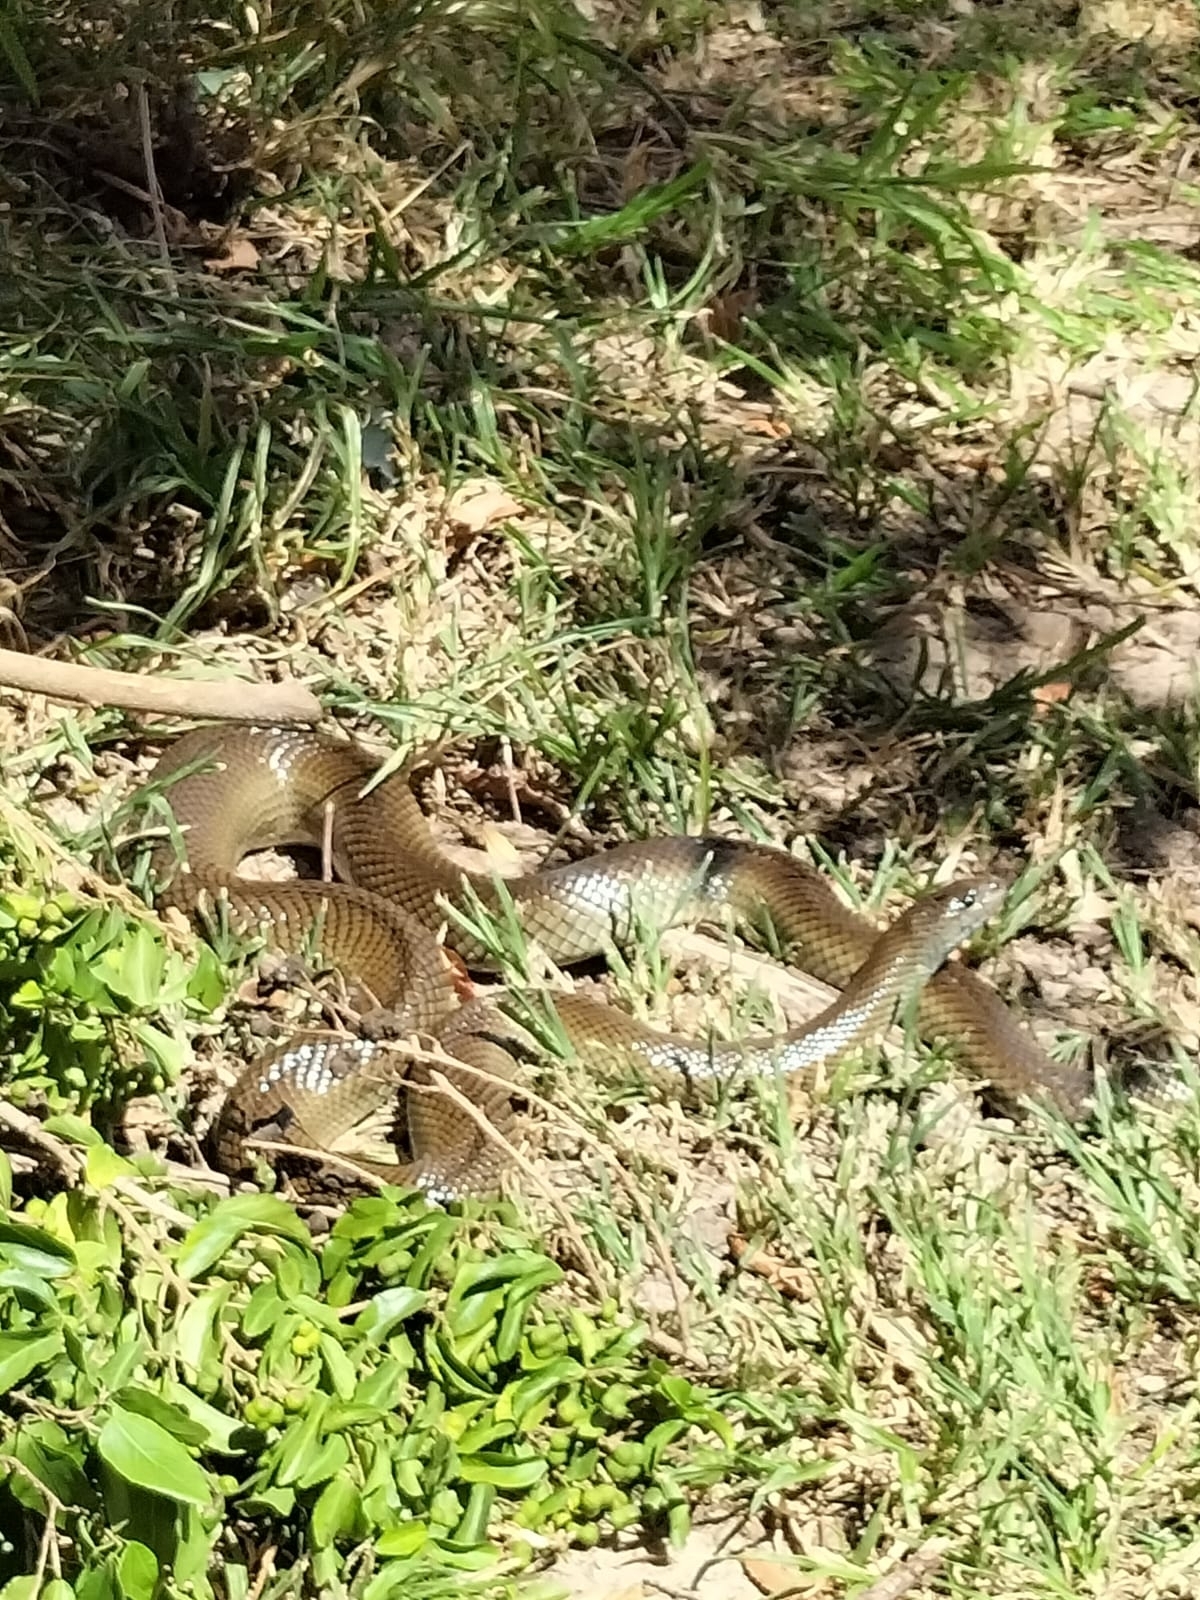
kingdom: Animalia
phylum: Chordata
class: Squamata
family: Pseudaspididae
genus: Pseudaspis
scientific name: Pseudaspis cana
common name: Mole snake
